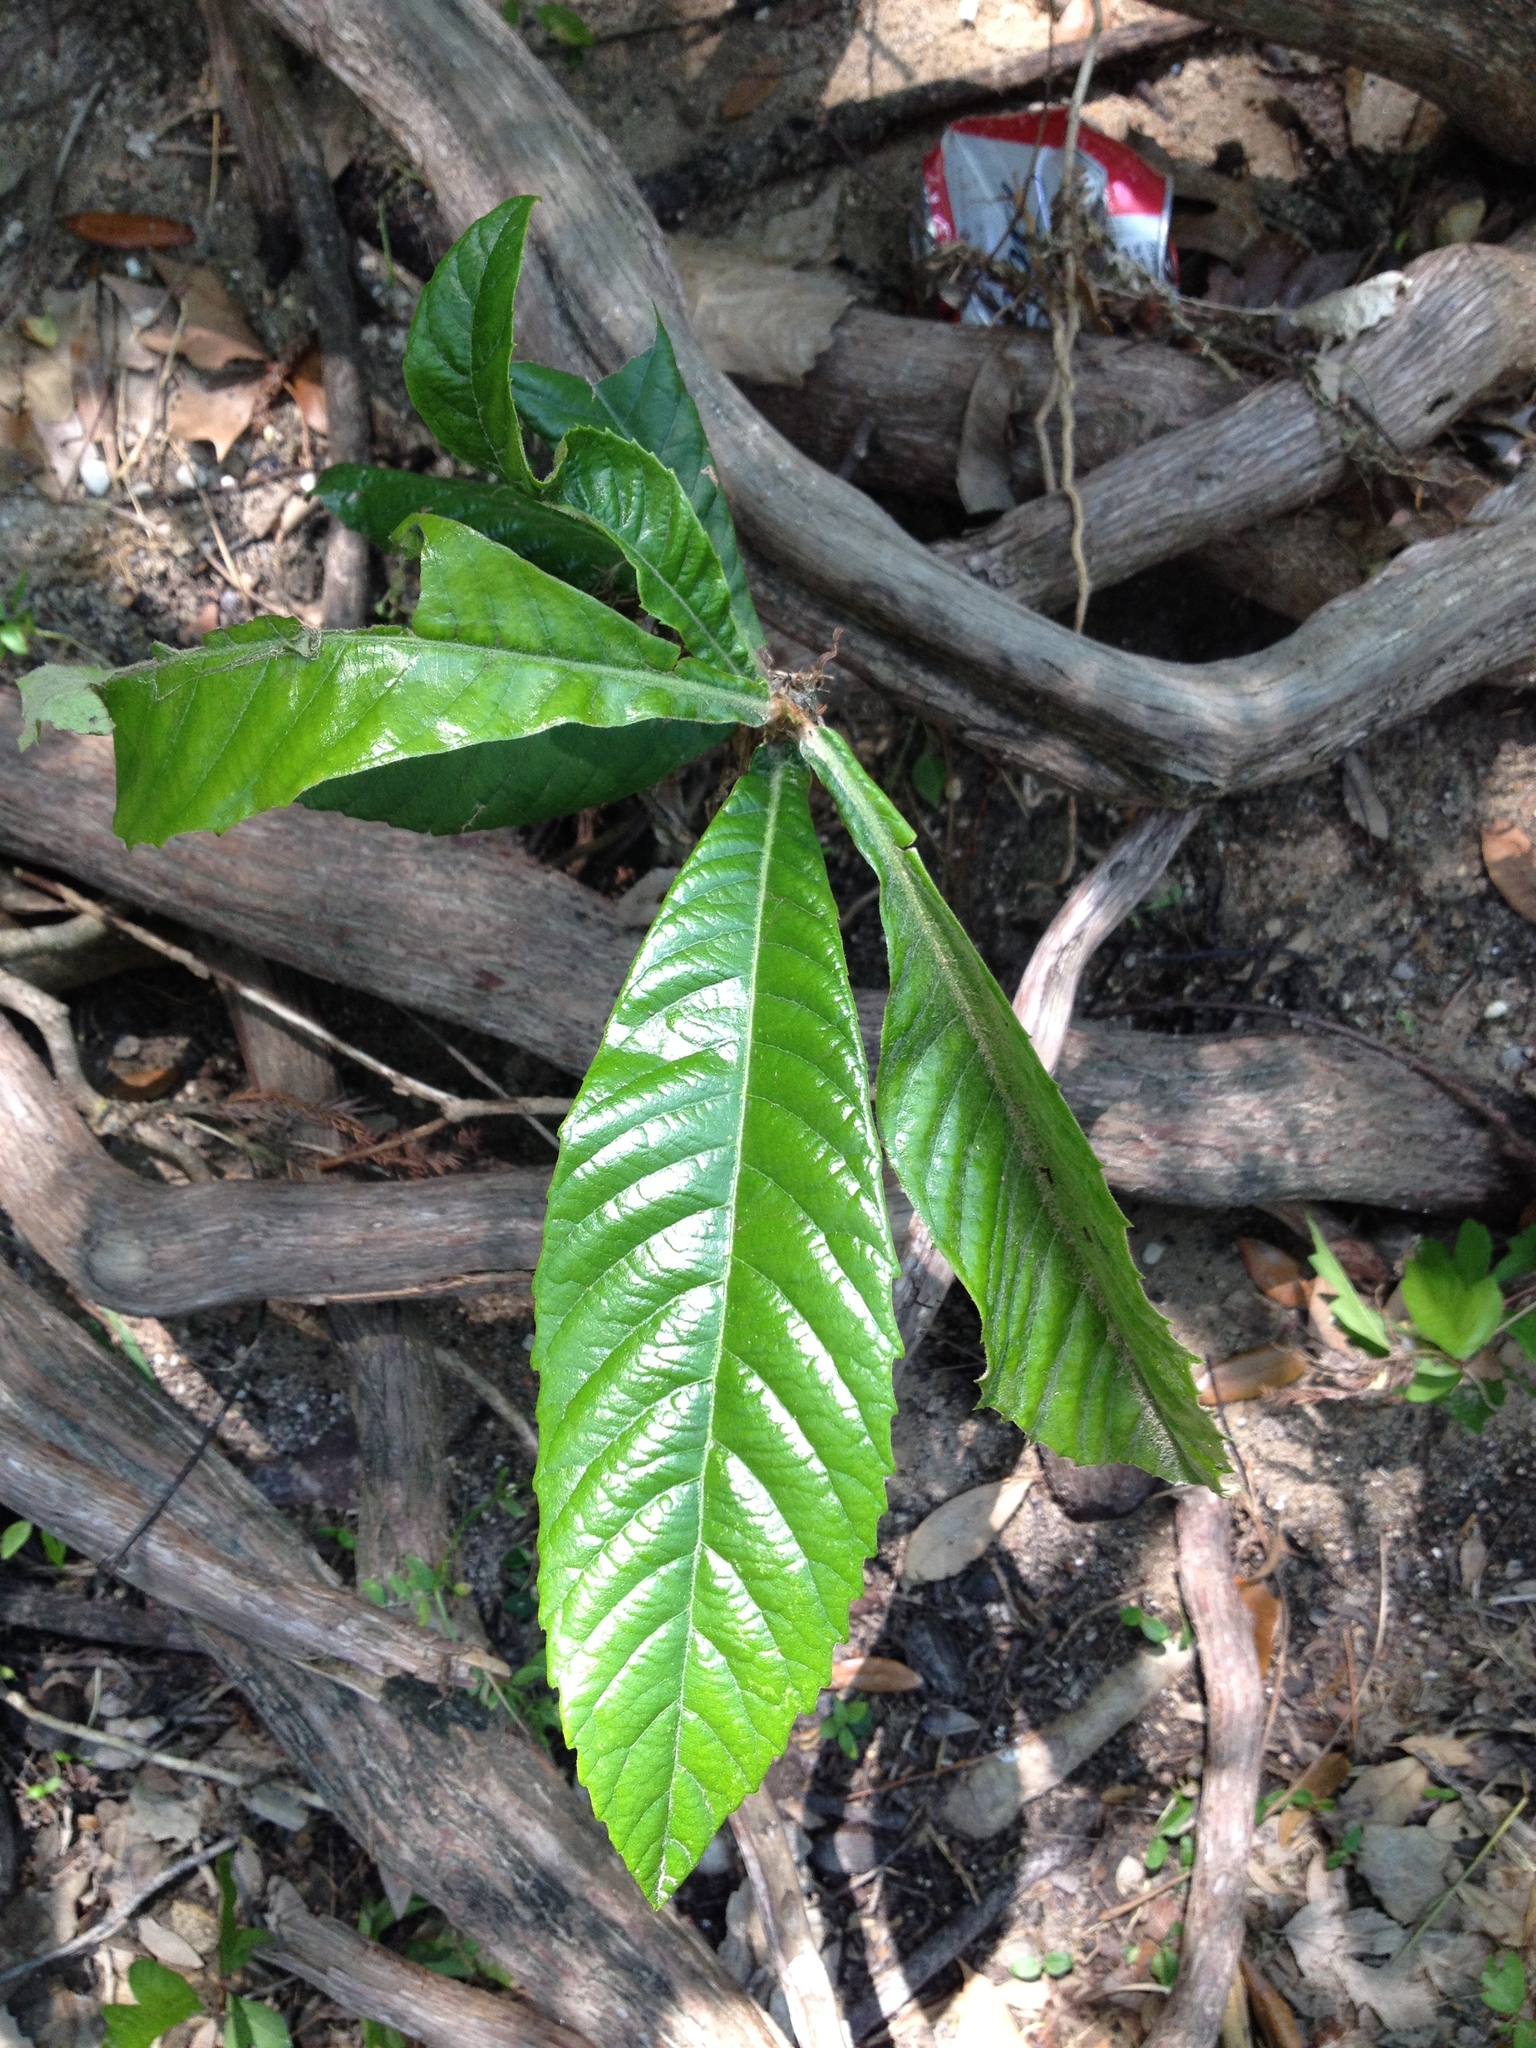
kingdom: Plantae
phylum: Tracheophyta
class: Magnoliopsida
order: Rosales
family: Rosaceae
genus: Rhaphiolepis
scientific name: Rhaphiolepis bibas
